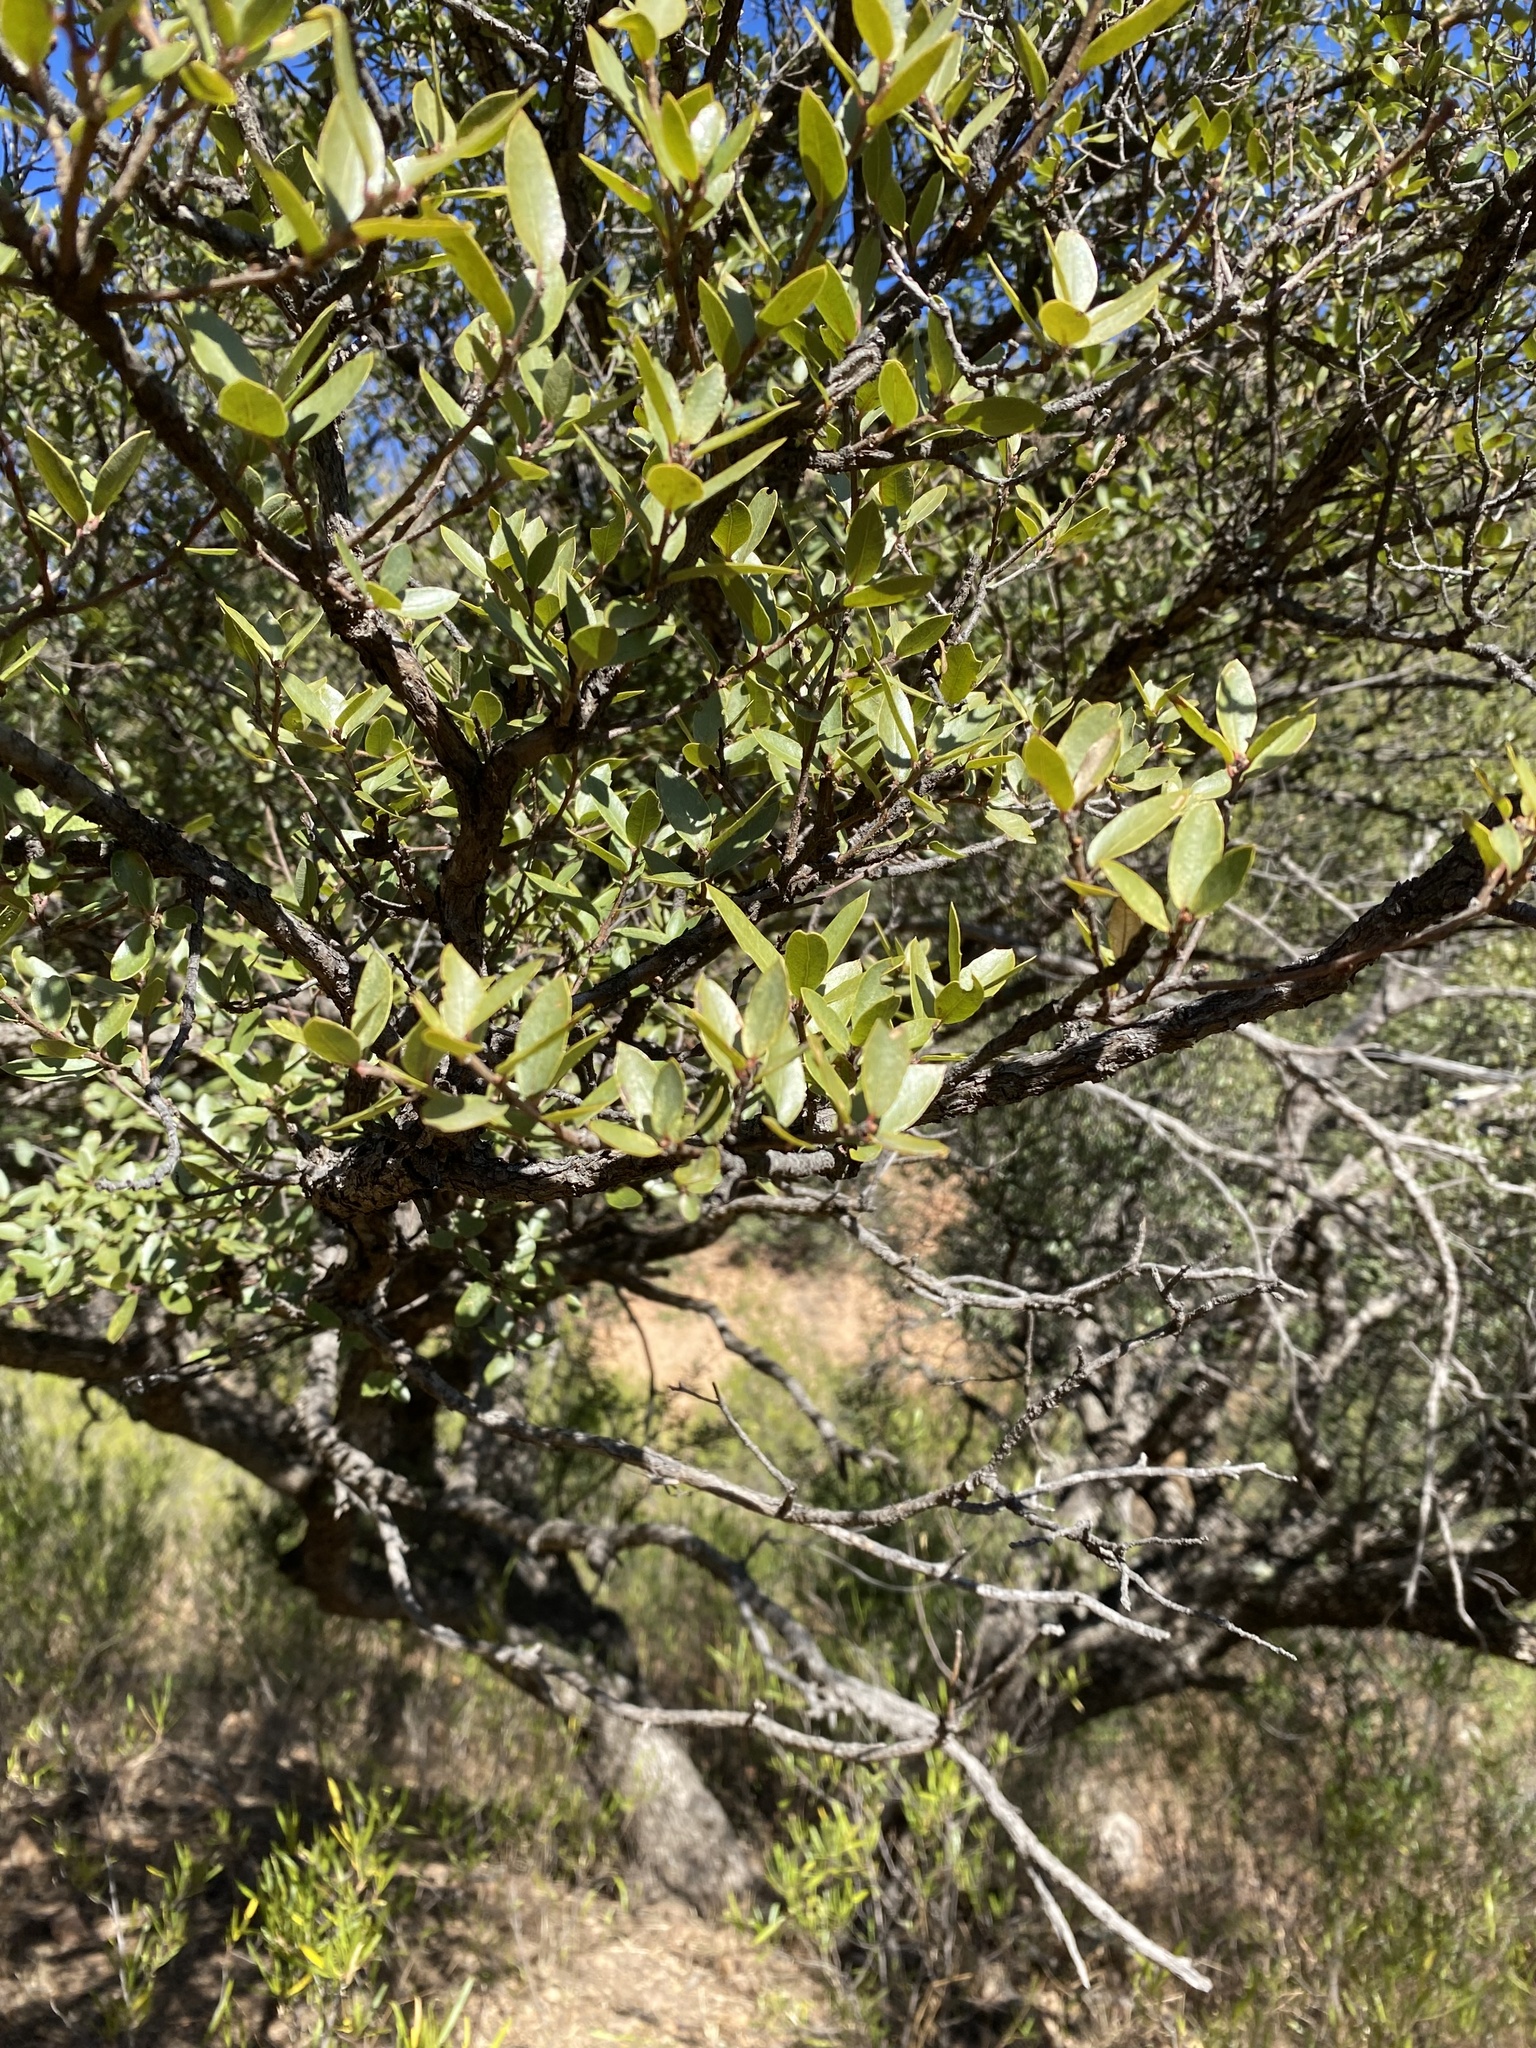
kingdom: Plantae
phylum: Tracheophyta
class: Magnoliopsida
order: Fagales
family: Fagaceae
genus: Quercus
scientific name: Quercus toumeyi
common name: Toumey oak
